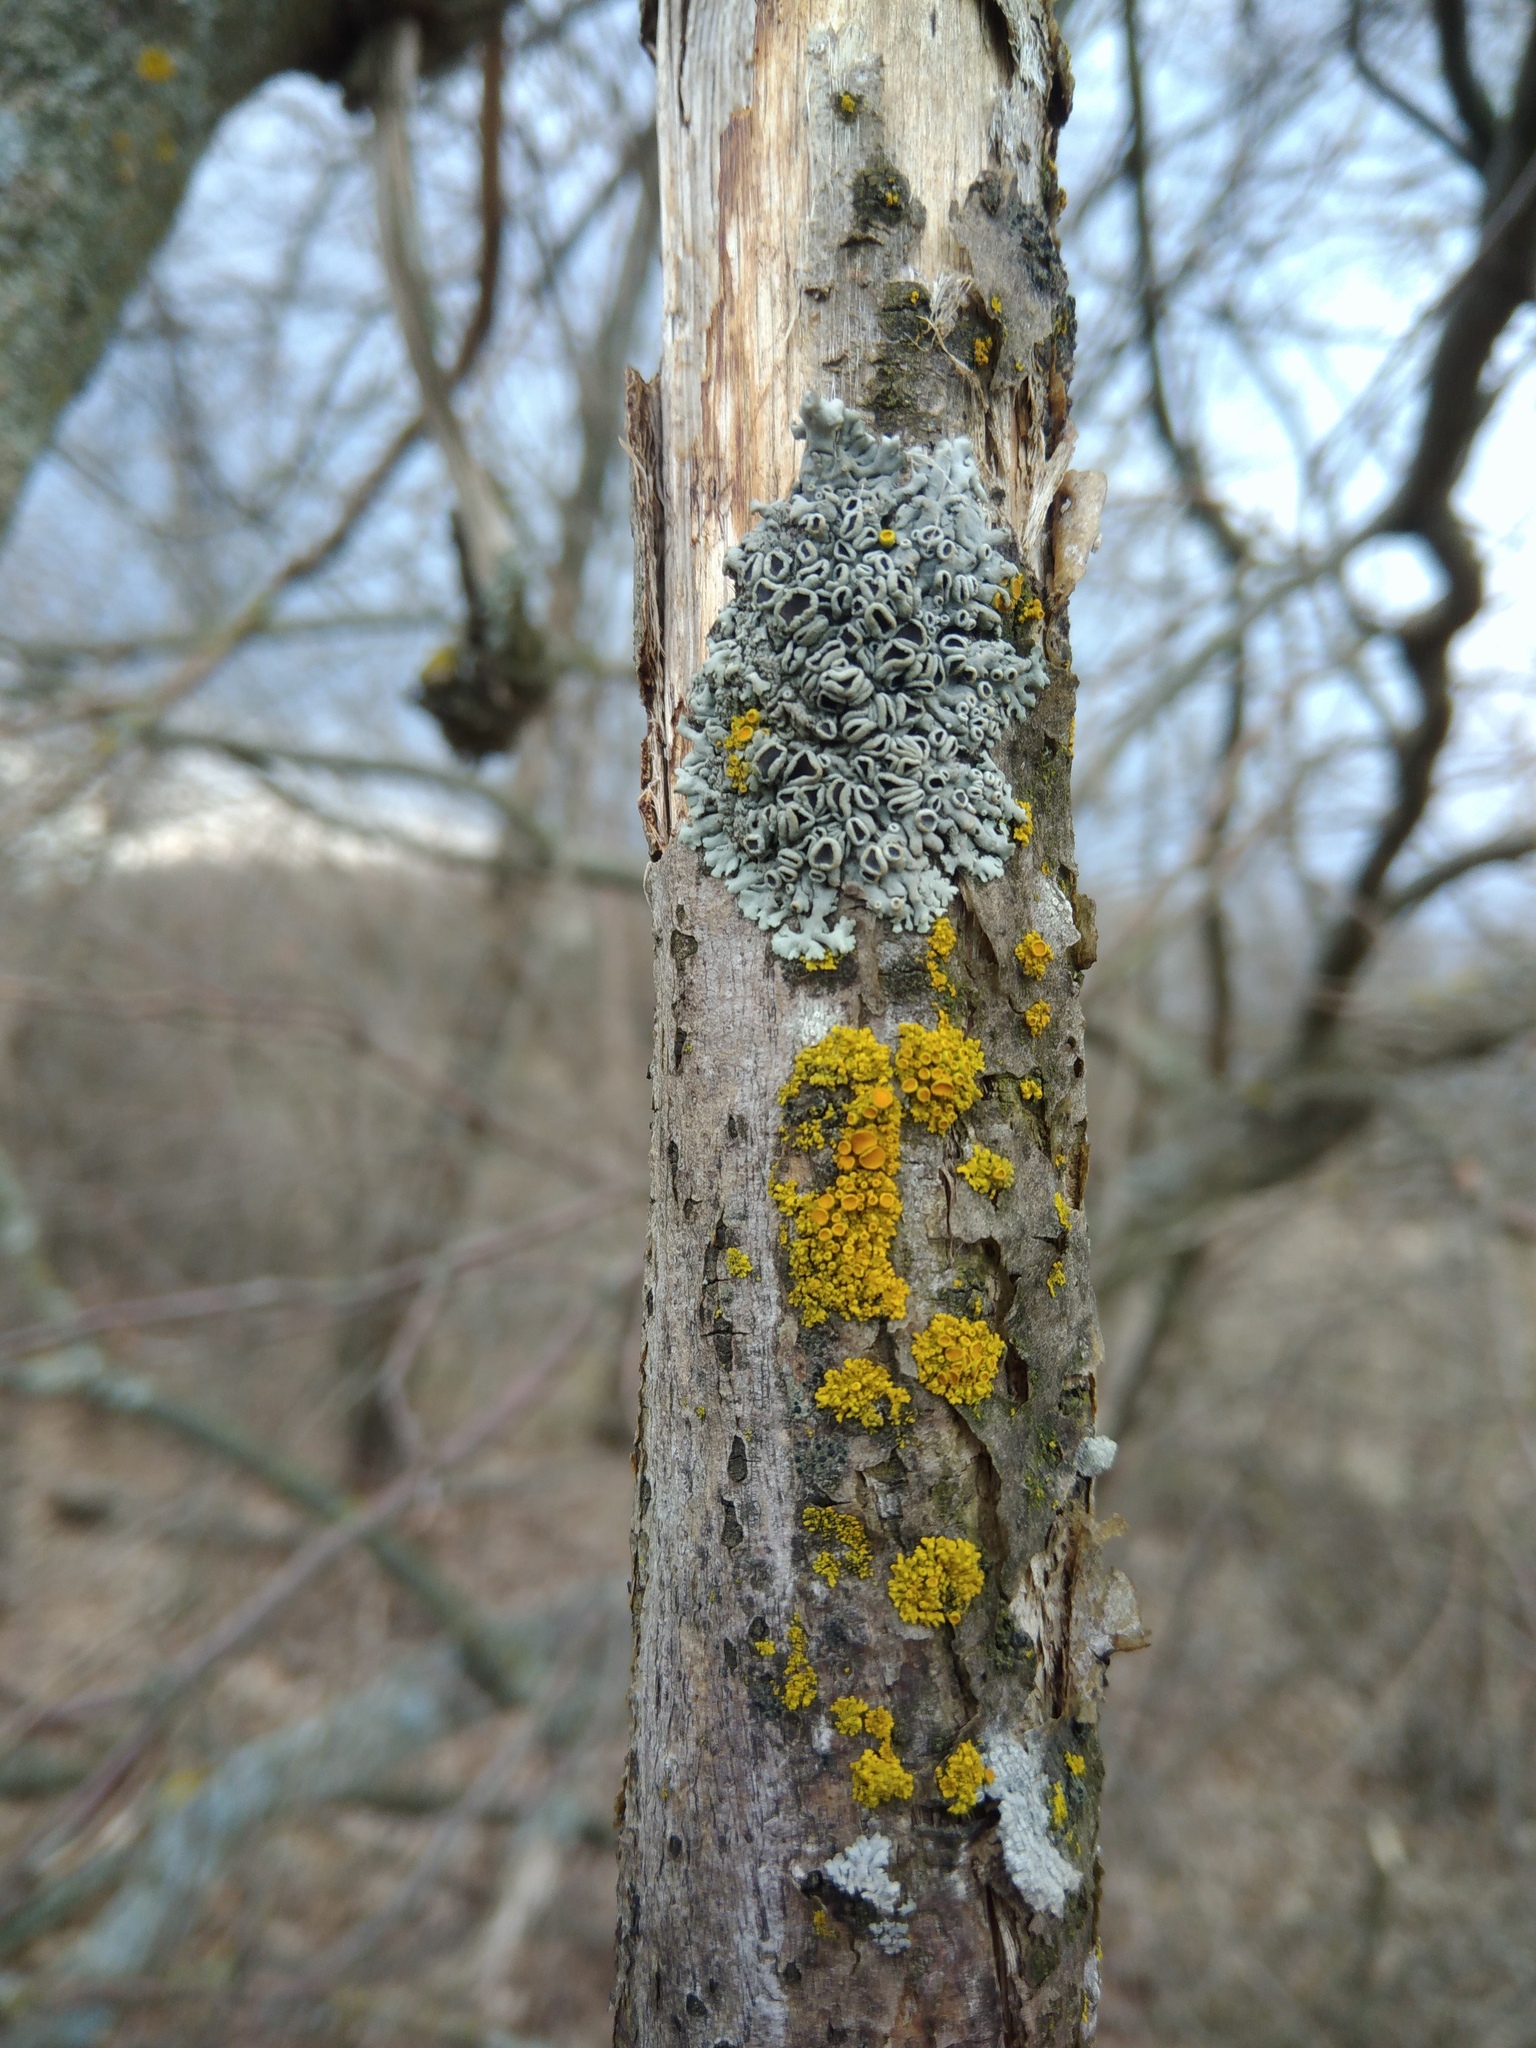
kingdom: Fungi
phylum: Ascomycota
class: Lecanoromycetes
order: Teloschistales
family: Teloschistaceae
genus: Polycauliona
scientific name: Polycauliona polycarpa
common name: Pin-cushion sunburst lichen
